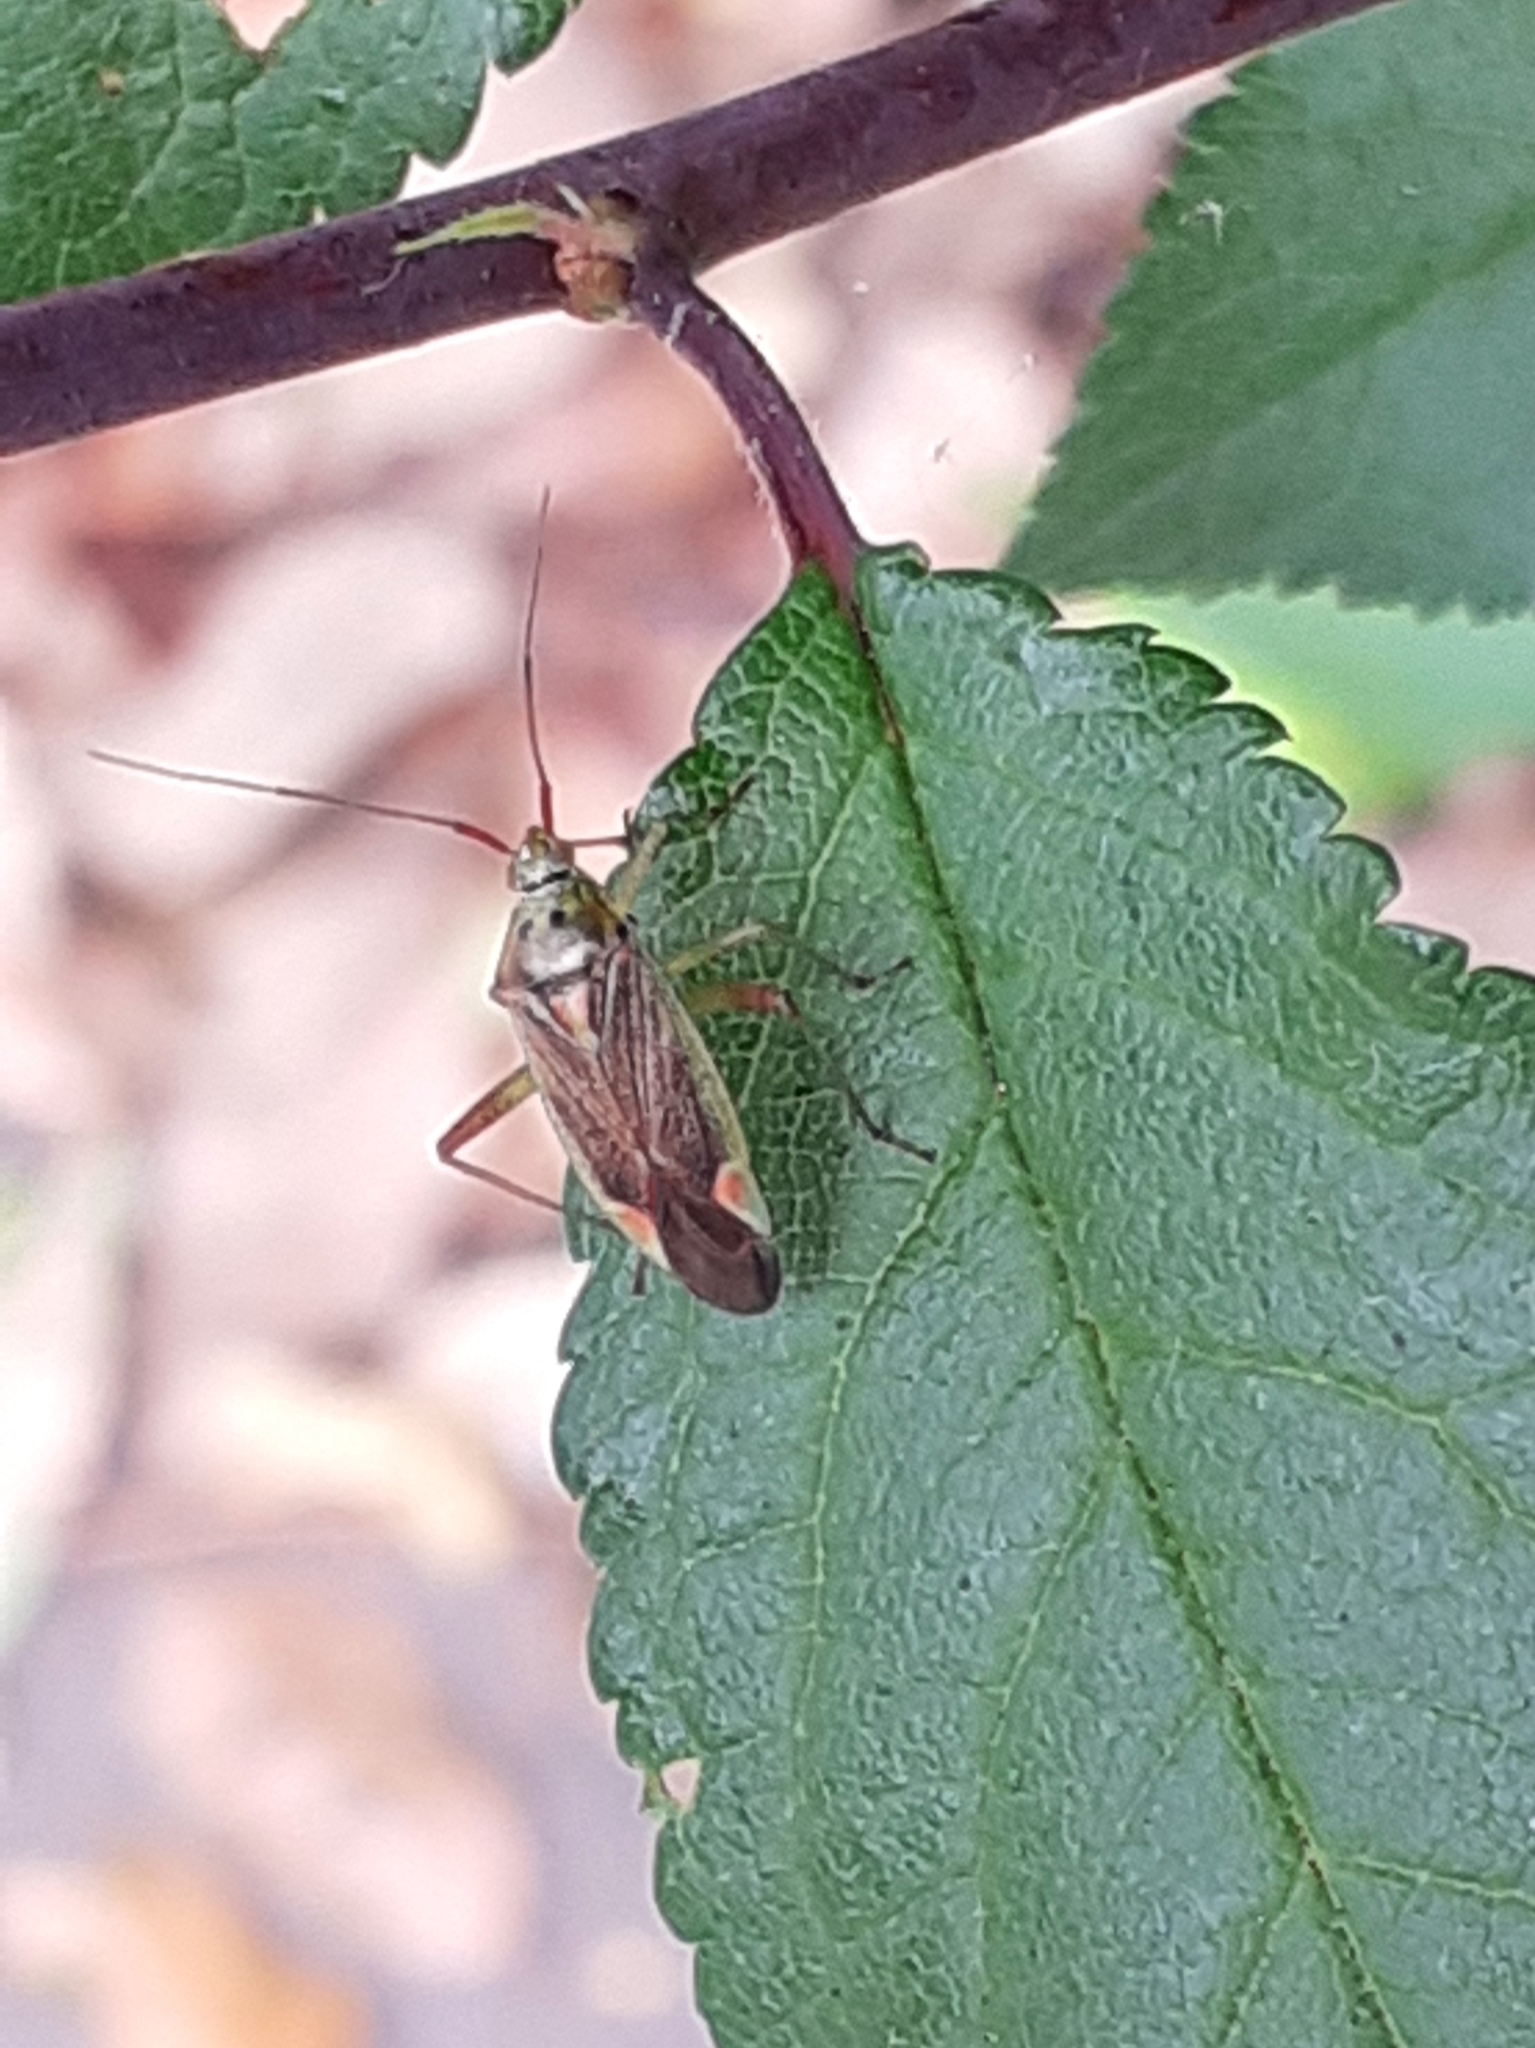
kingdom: Animalia
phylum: Arthropoda
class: Insecta
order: Hemiptera
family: Miridae
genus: Closterotomus
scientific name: Closterotomus trivialis
